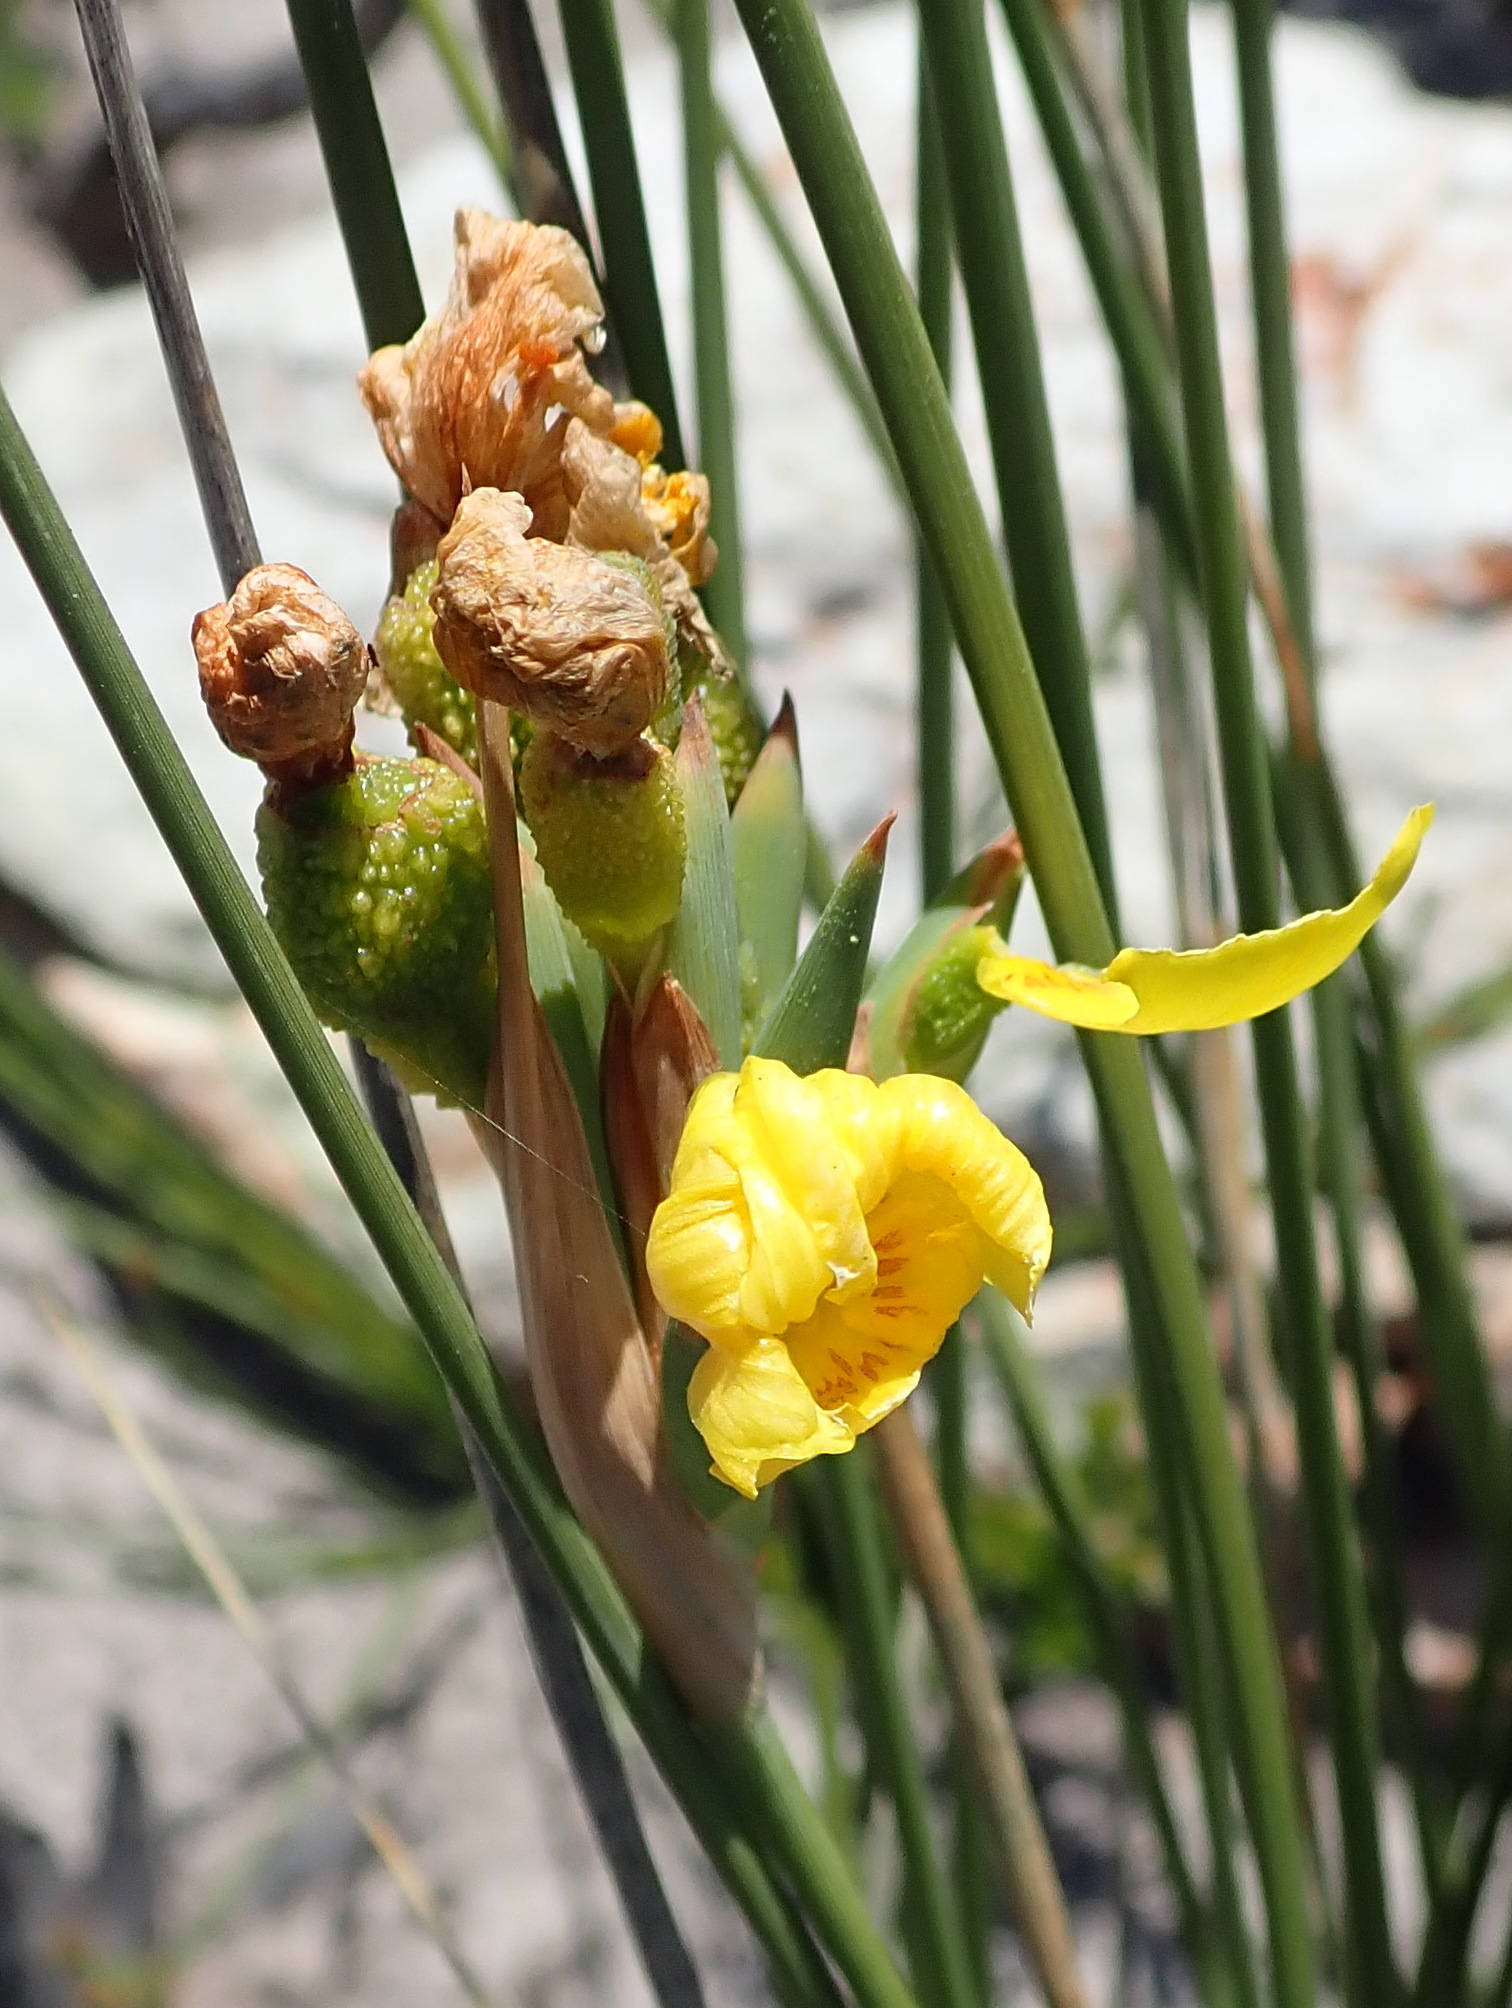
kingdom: Plantae
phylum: Tracheophyta
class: Liliopsida
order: Asparagales
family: Iridaceae
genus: Bobartia
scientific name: Bobartia aphylla
